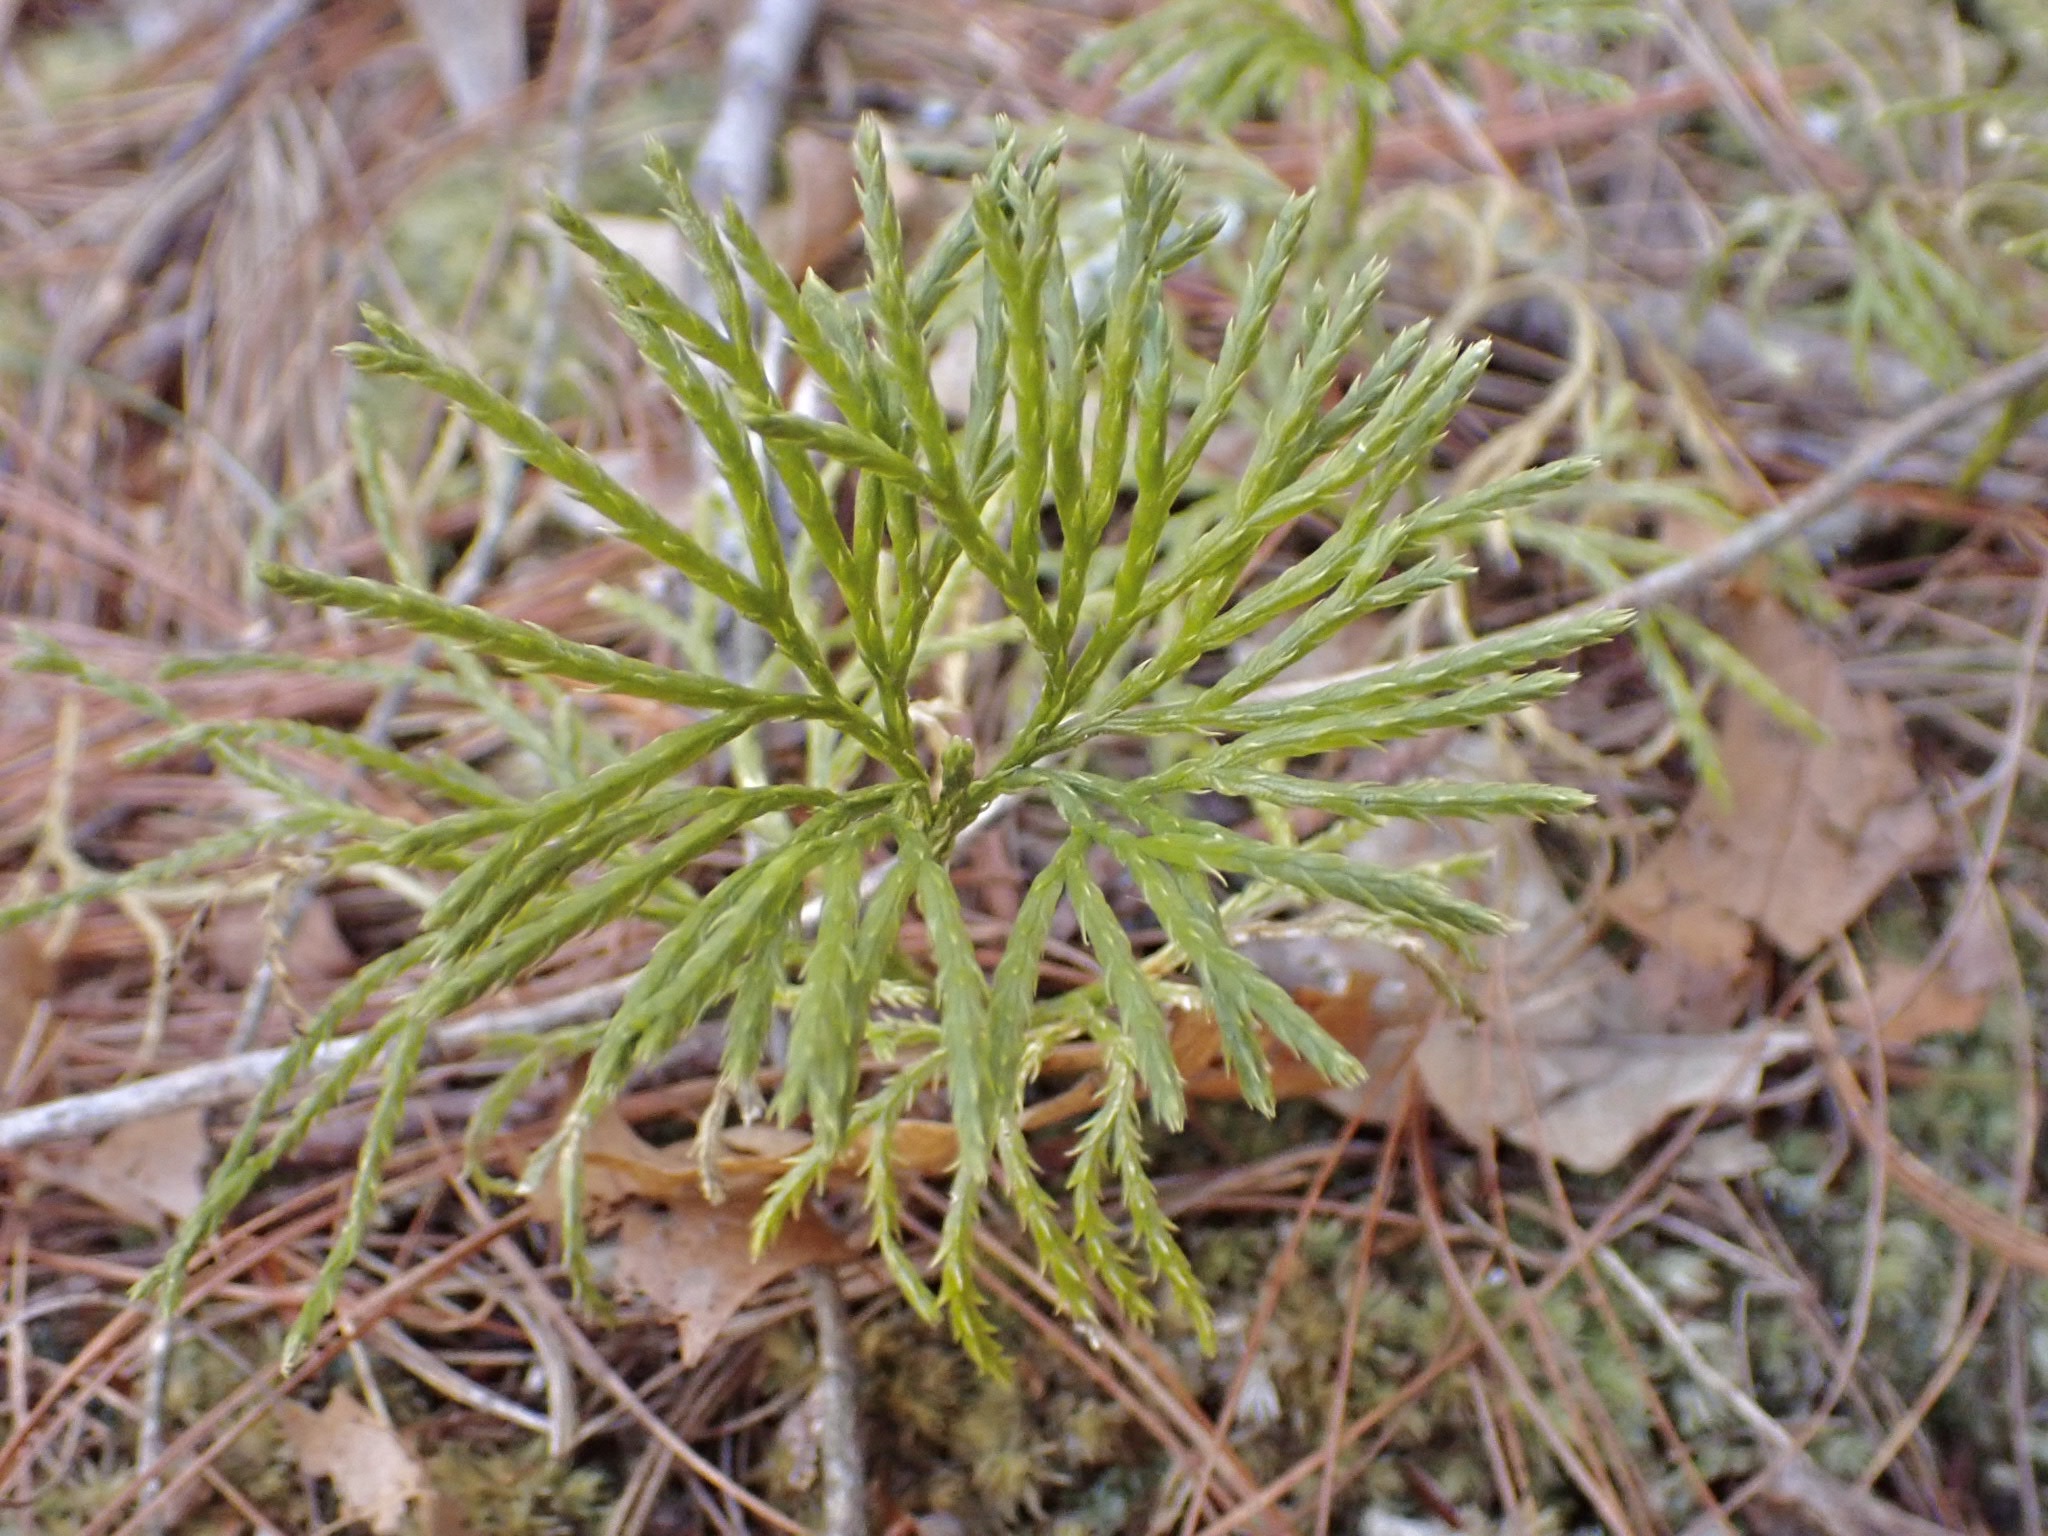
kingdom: Plantae
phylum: Tracheophyta
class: Lycopodiopsida
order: Lycopodiales
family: Lycopodiaceae
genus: Diphasiastrum
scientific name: Diphasiastrum digitatum
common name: Southern running-pine
